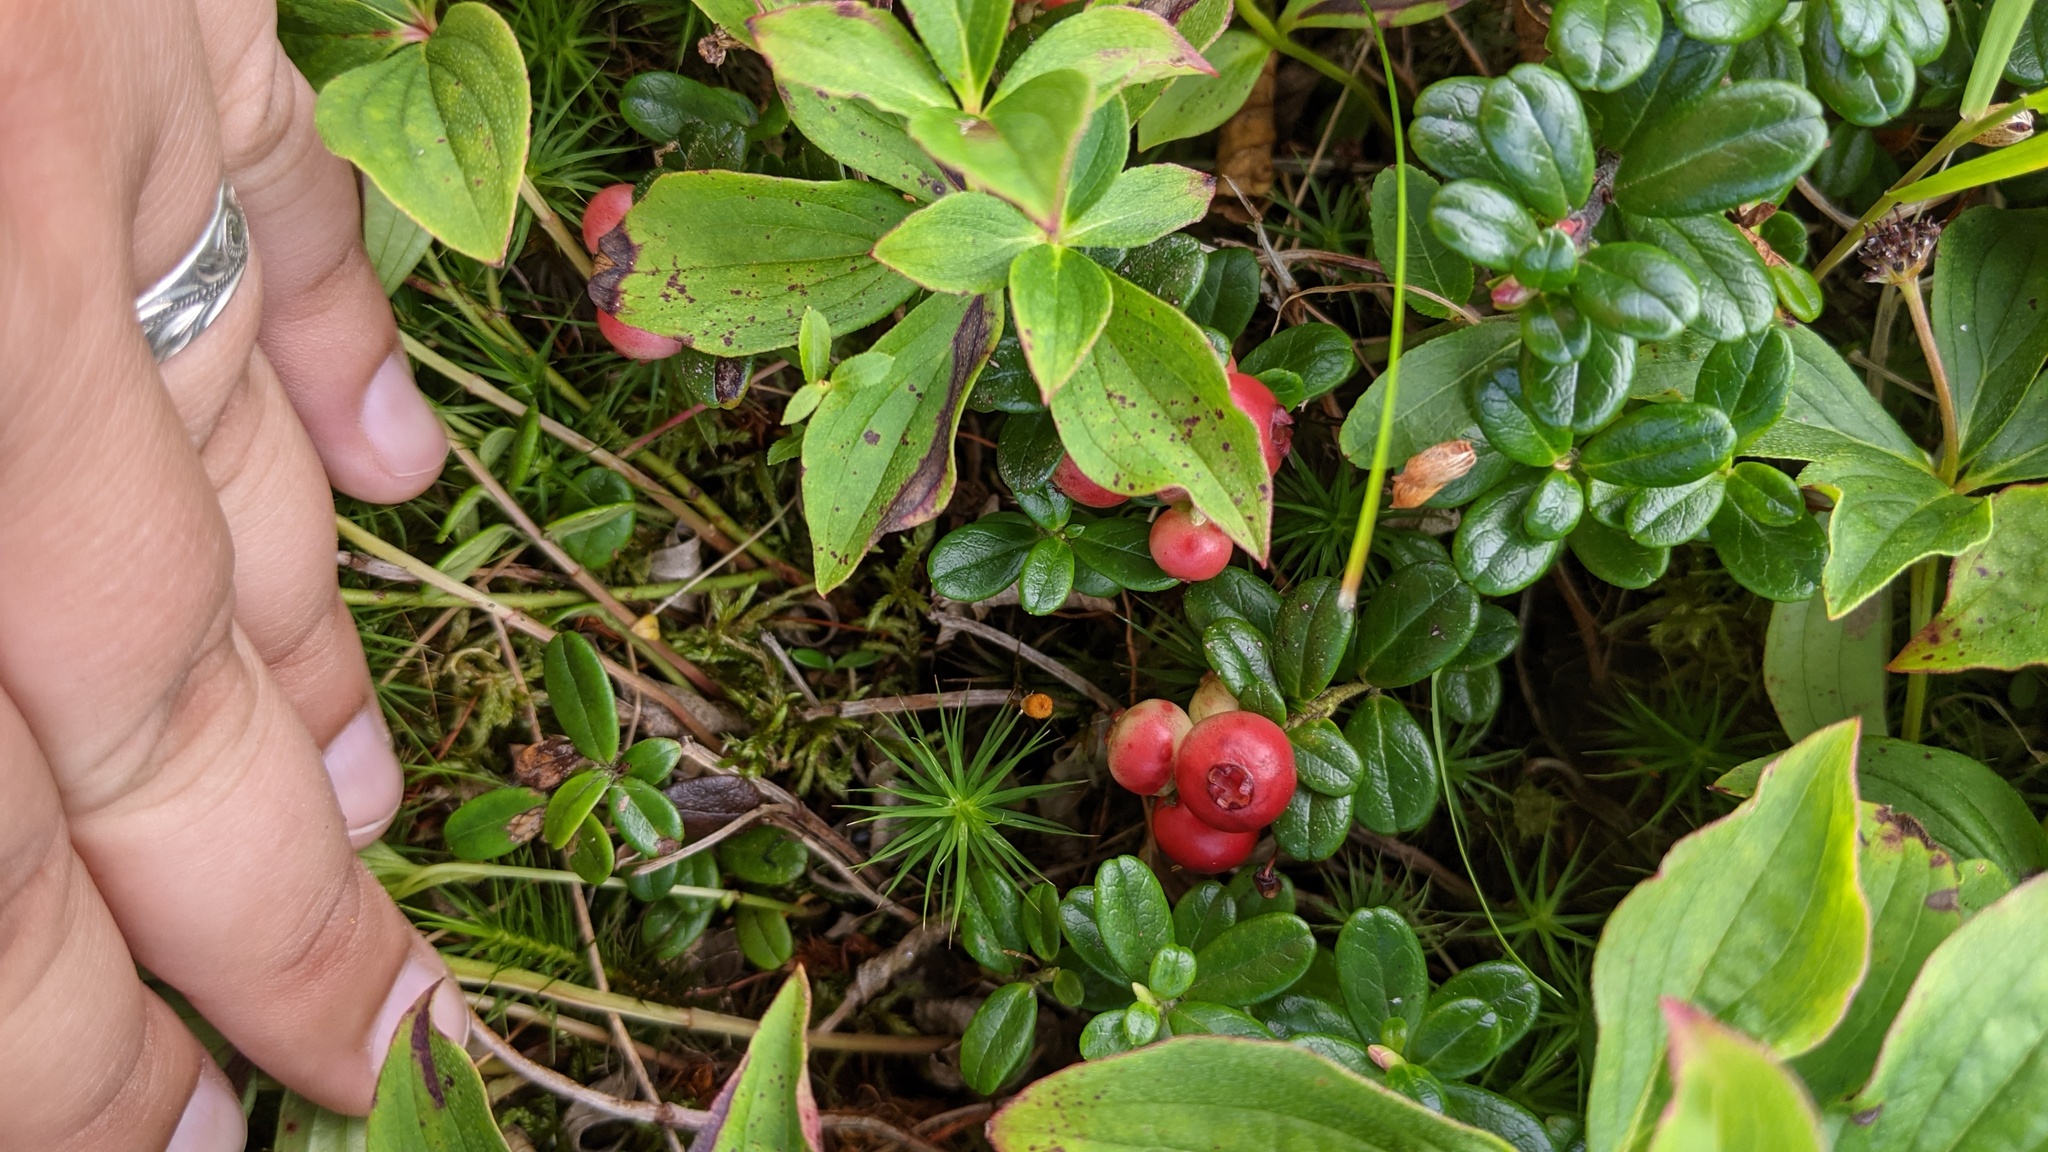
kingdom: Plantae
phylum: Tracheophyta
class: Magnoliopsida
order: Ericales
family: Ericaceae
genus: Vaccinium
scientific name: Vaccinium vitis-idaea
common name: Cowberry
